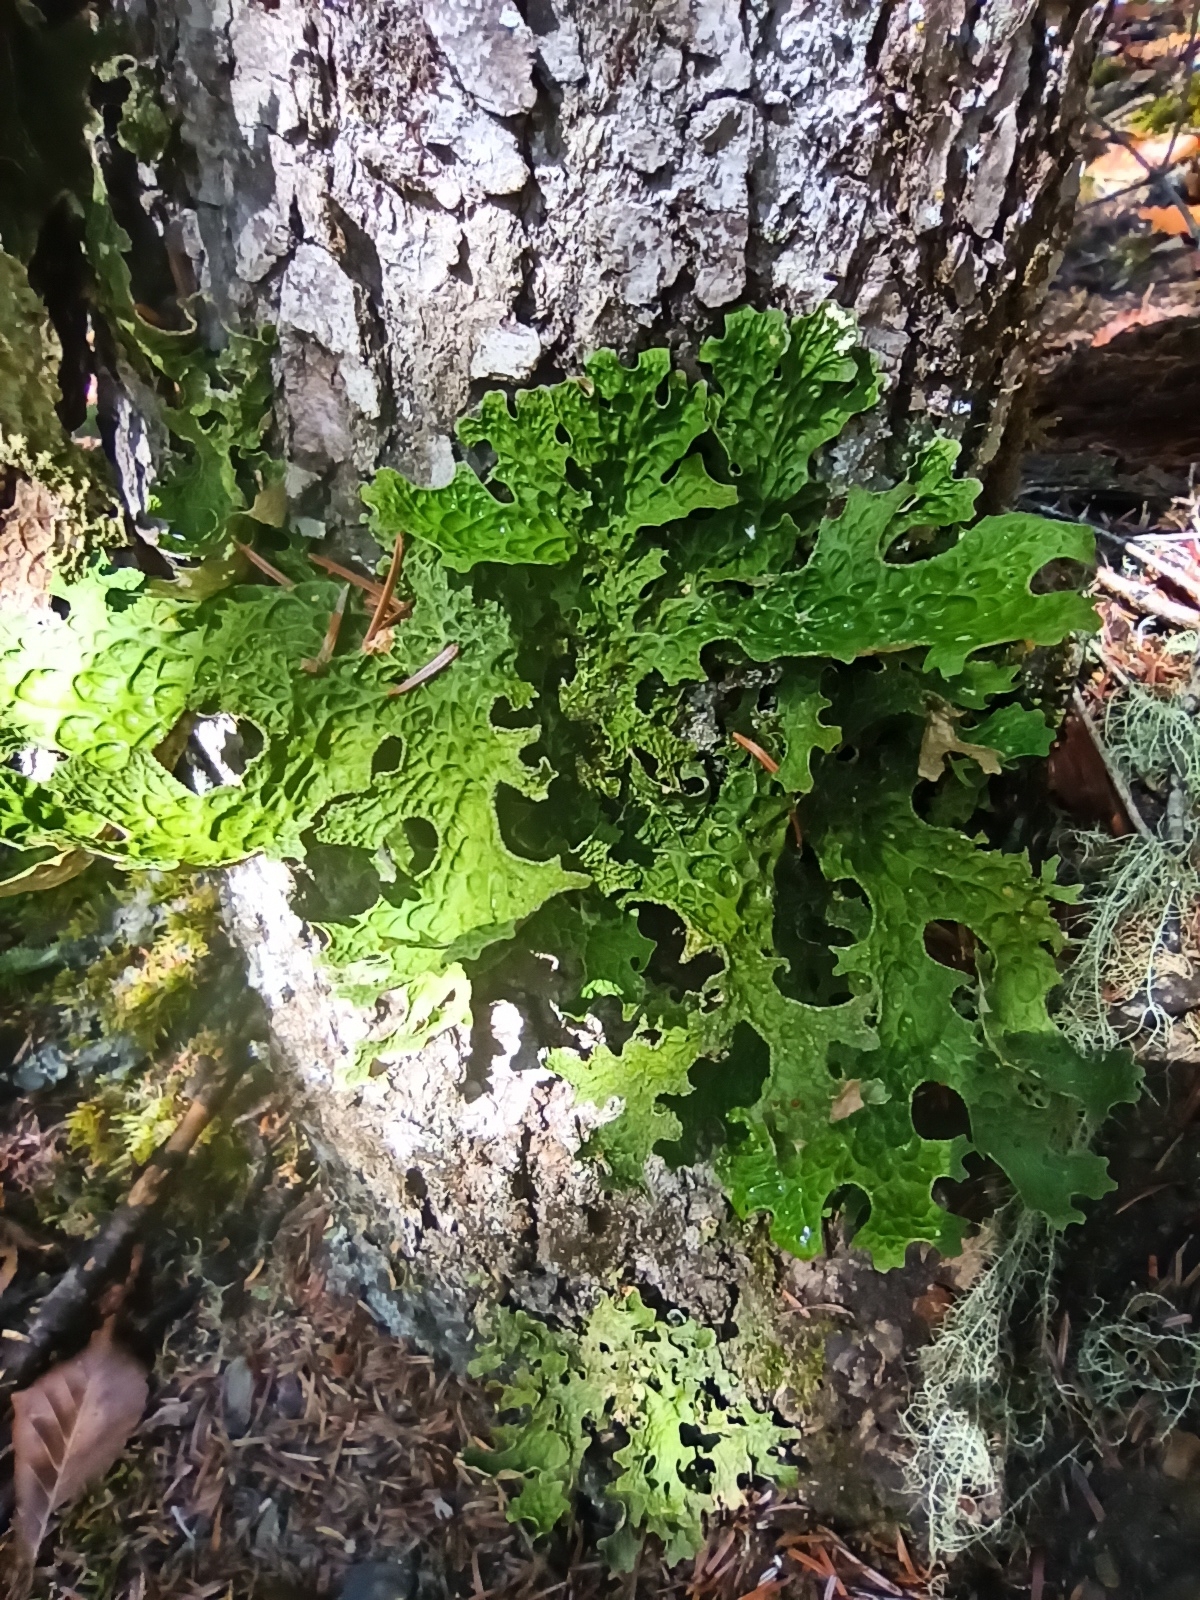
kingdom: Fungi
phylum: Ascomycota
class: Lecanoromycetes
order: Peltigerales
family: Lobariaceae
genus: Lobaria
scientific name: Lobaria pulmonaria
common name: Lungwort
